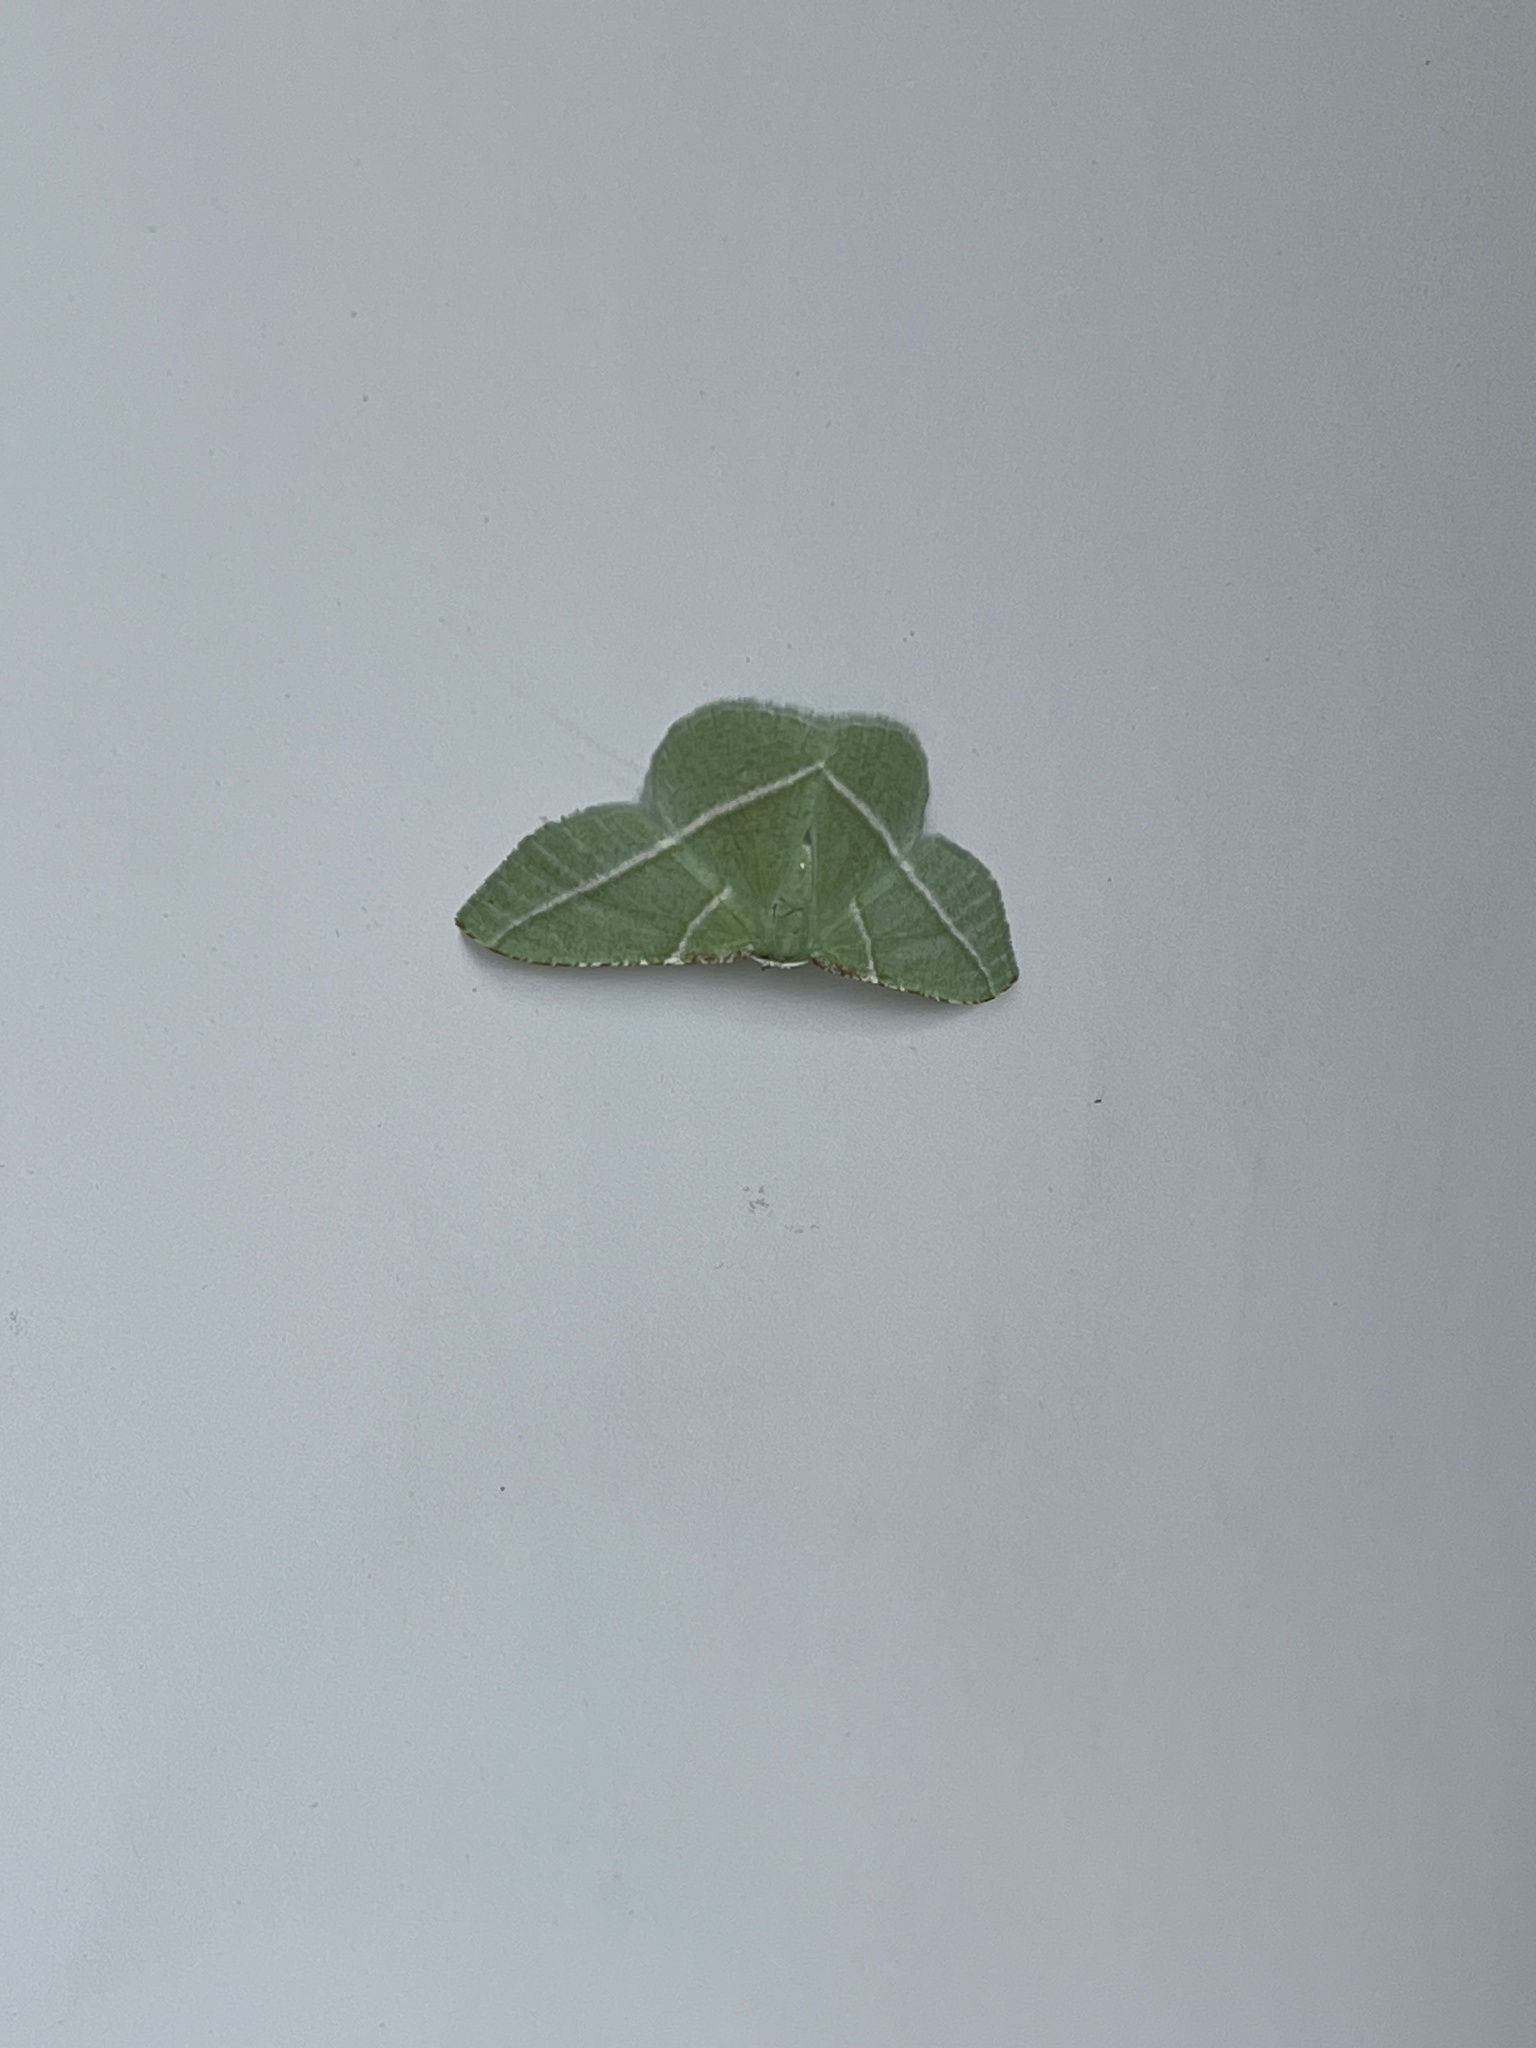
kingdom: Animalia
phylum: Arthropoda
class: Insecta
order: Lepidoptera
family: Geometridae
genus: Dichorda
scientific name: Dichorda rectaria
